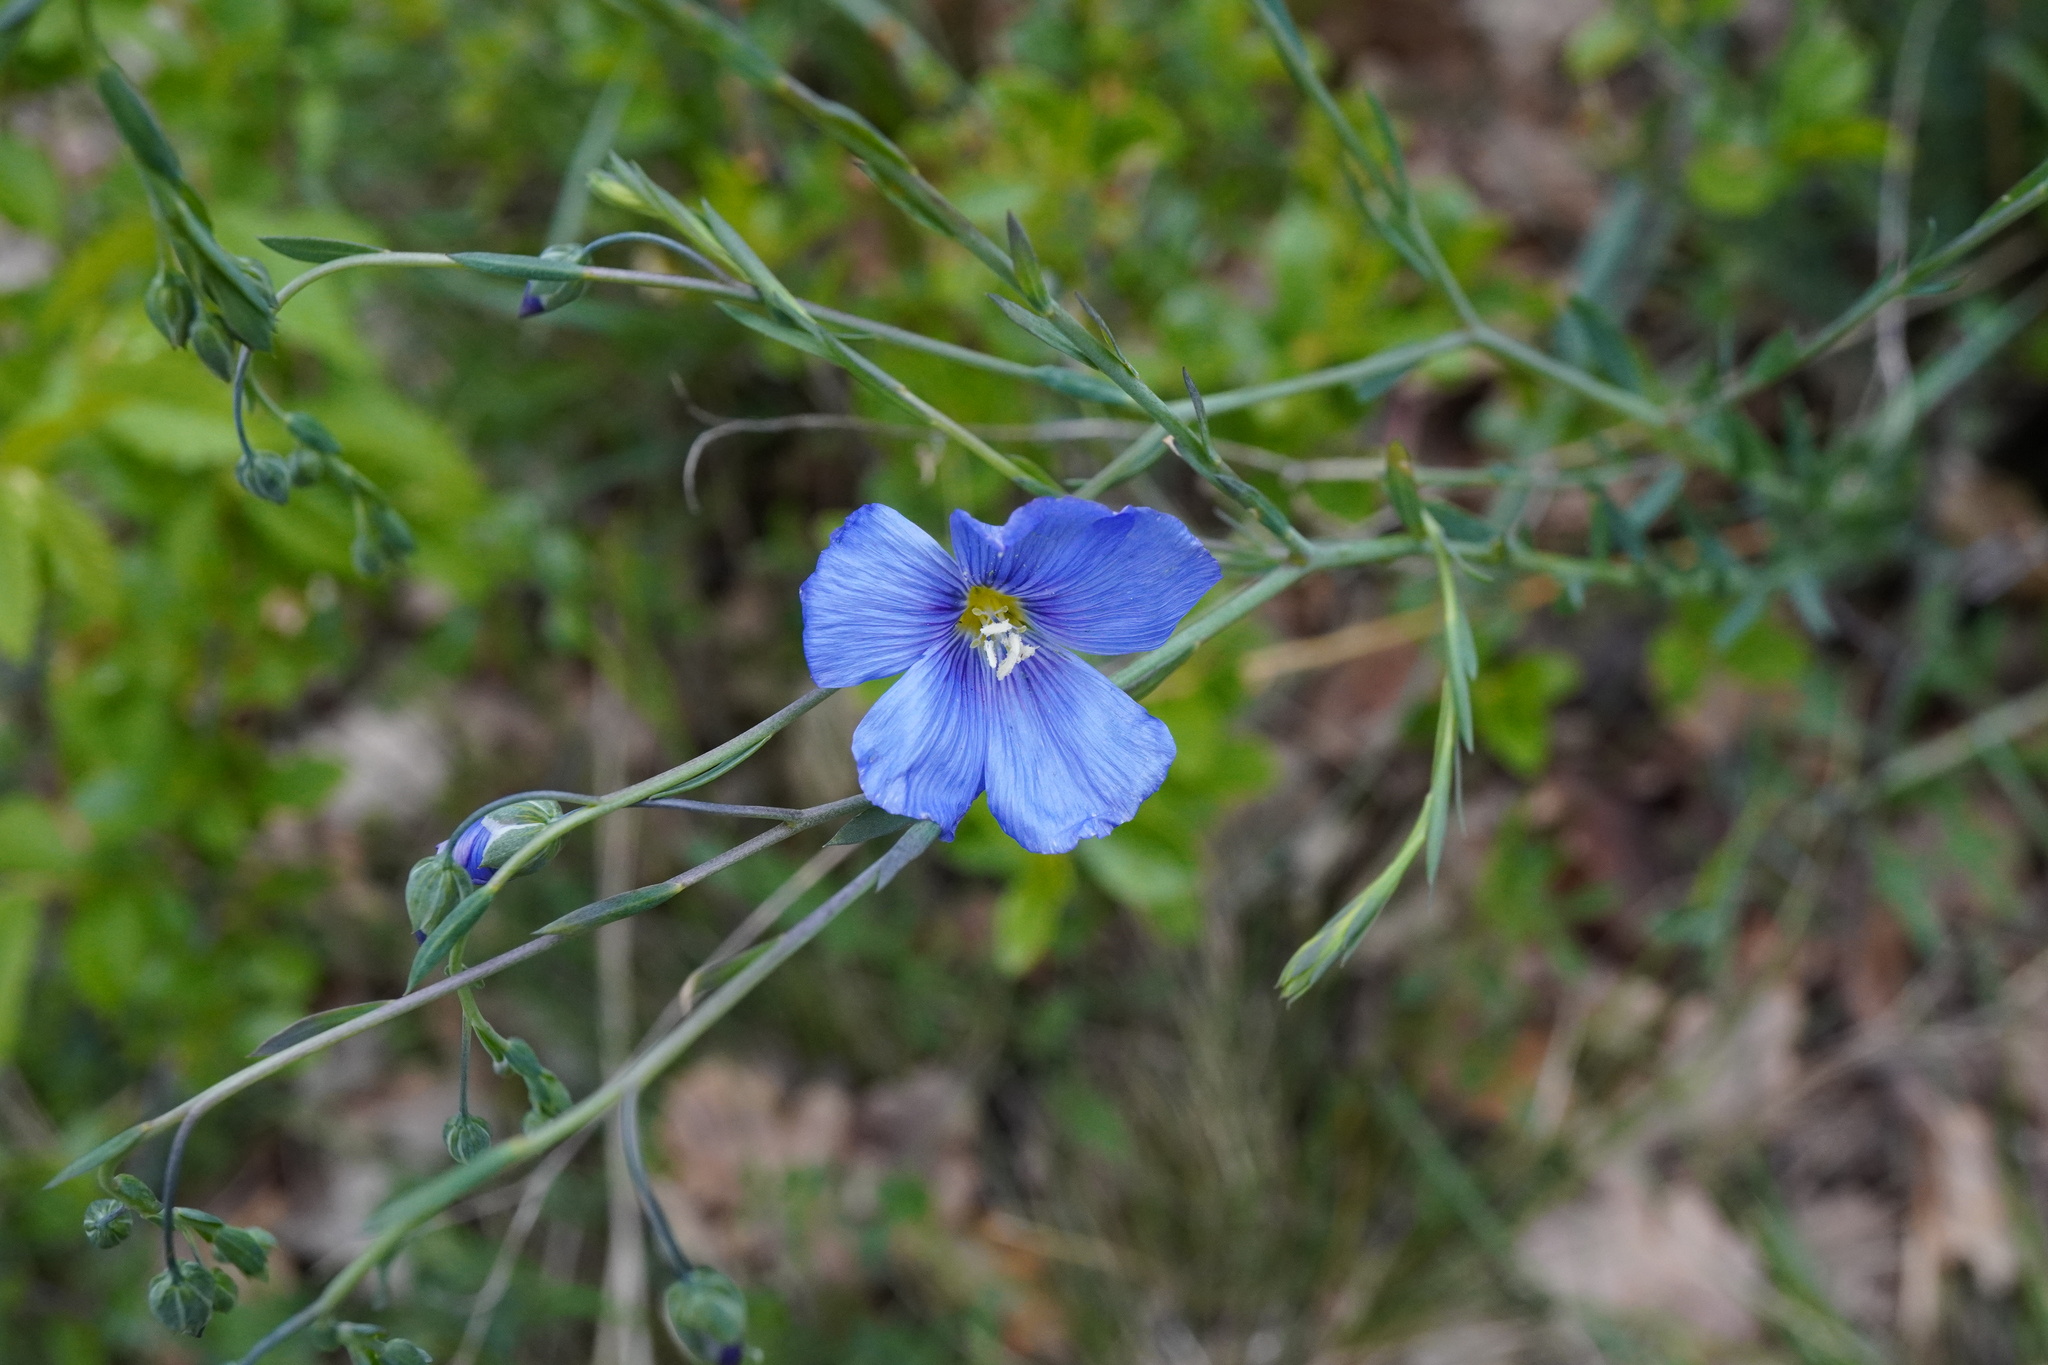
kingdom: Plantae
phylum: Tracheophyta
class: Magnoliopsida
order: Malpighiales
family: Linaceae
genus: Linum
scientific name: Linum austriacum
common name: Austrian flax
